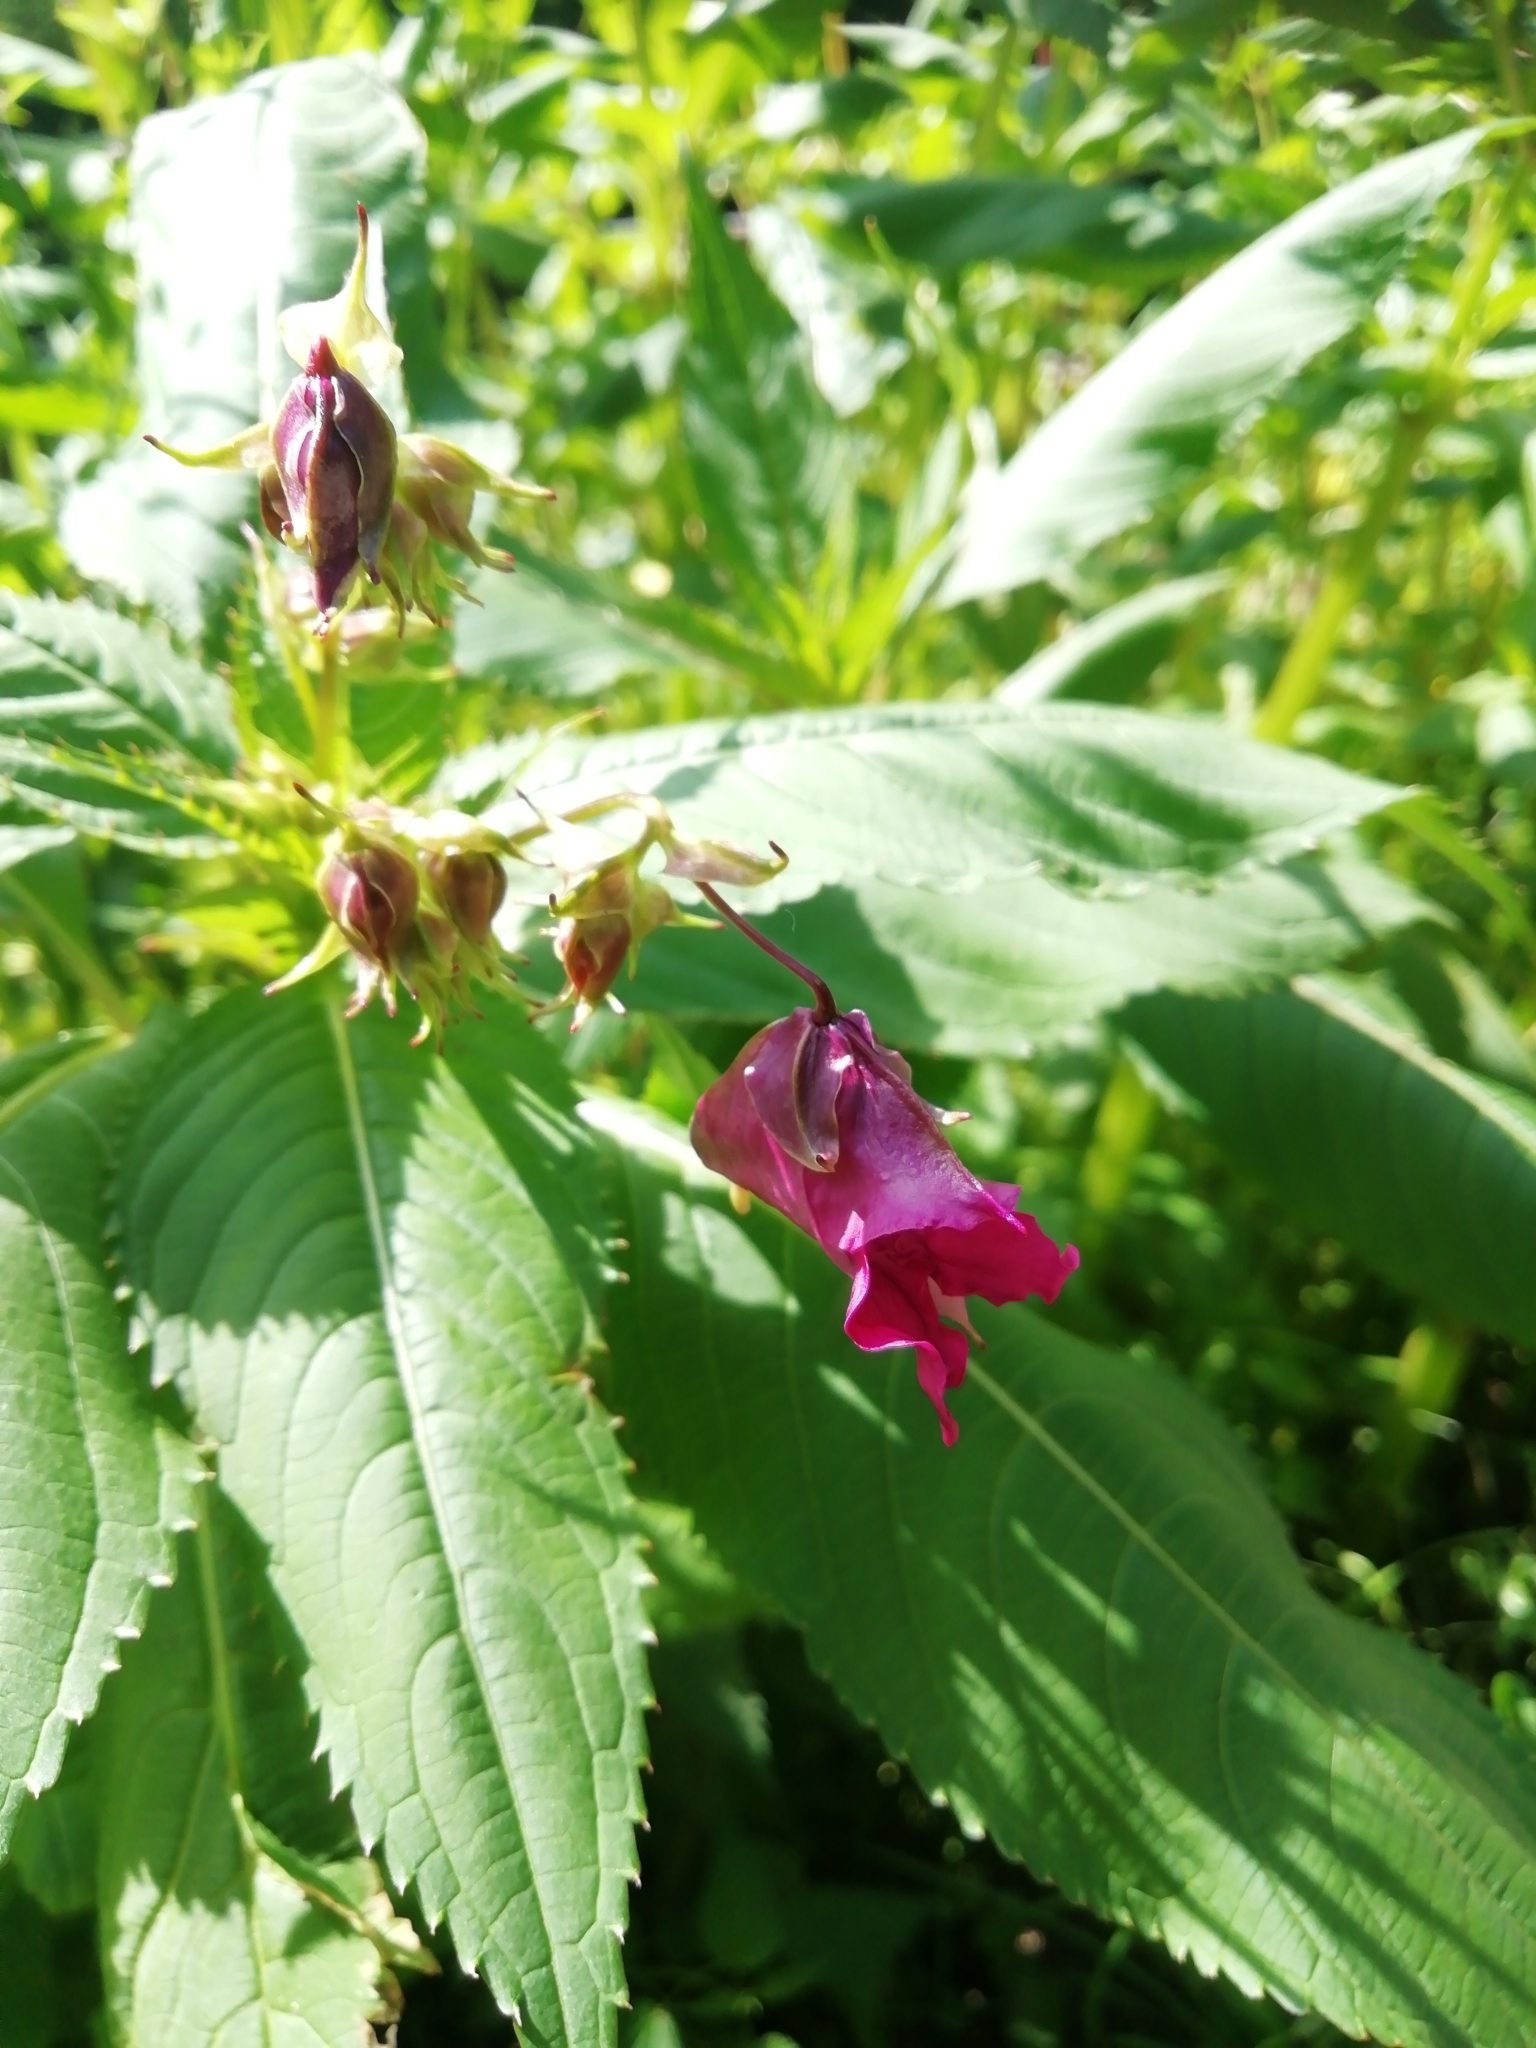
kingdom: Plantae
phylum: Tracheophyta
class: Magnoliopsida
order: Ericales
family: Balsaminaceae
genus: Impatiens
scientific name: Impatiens glandulifera
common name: Himalayan balsam
